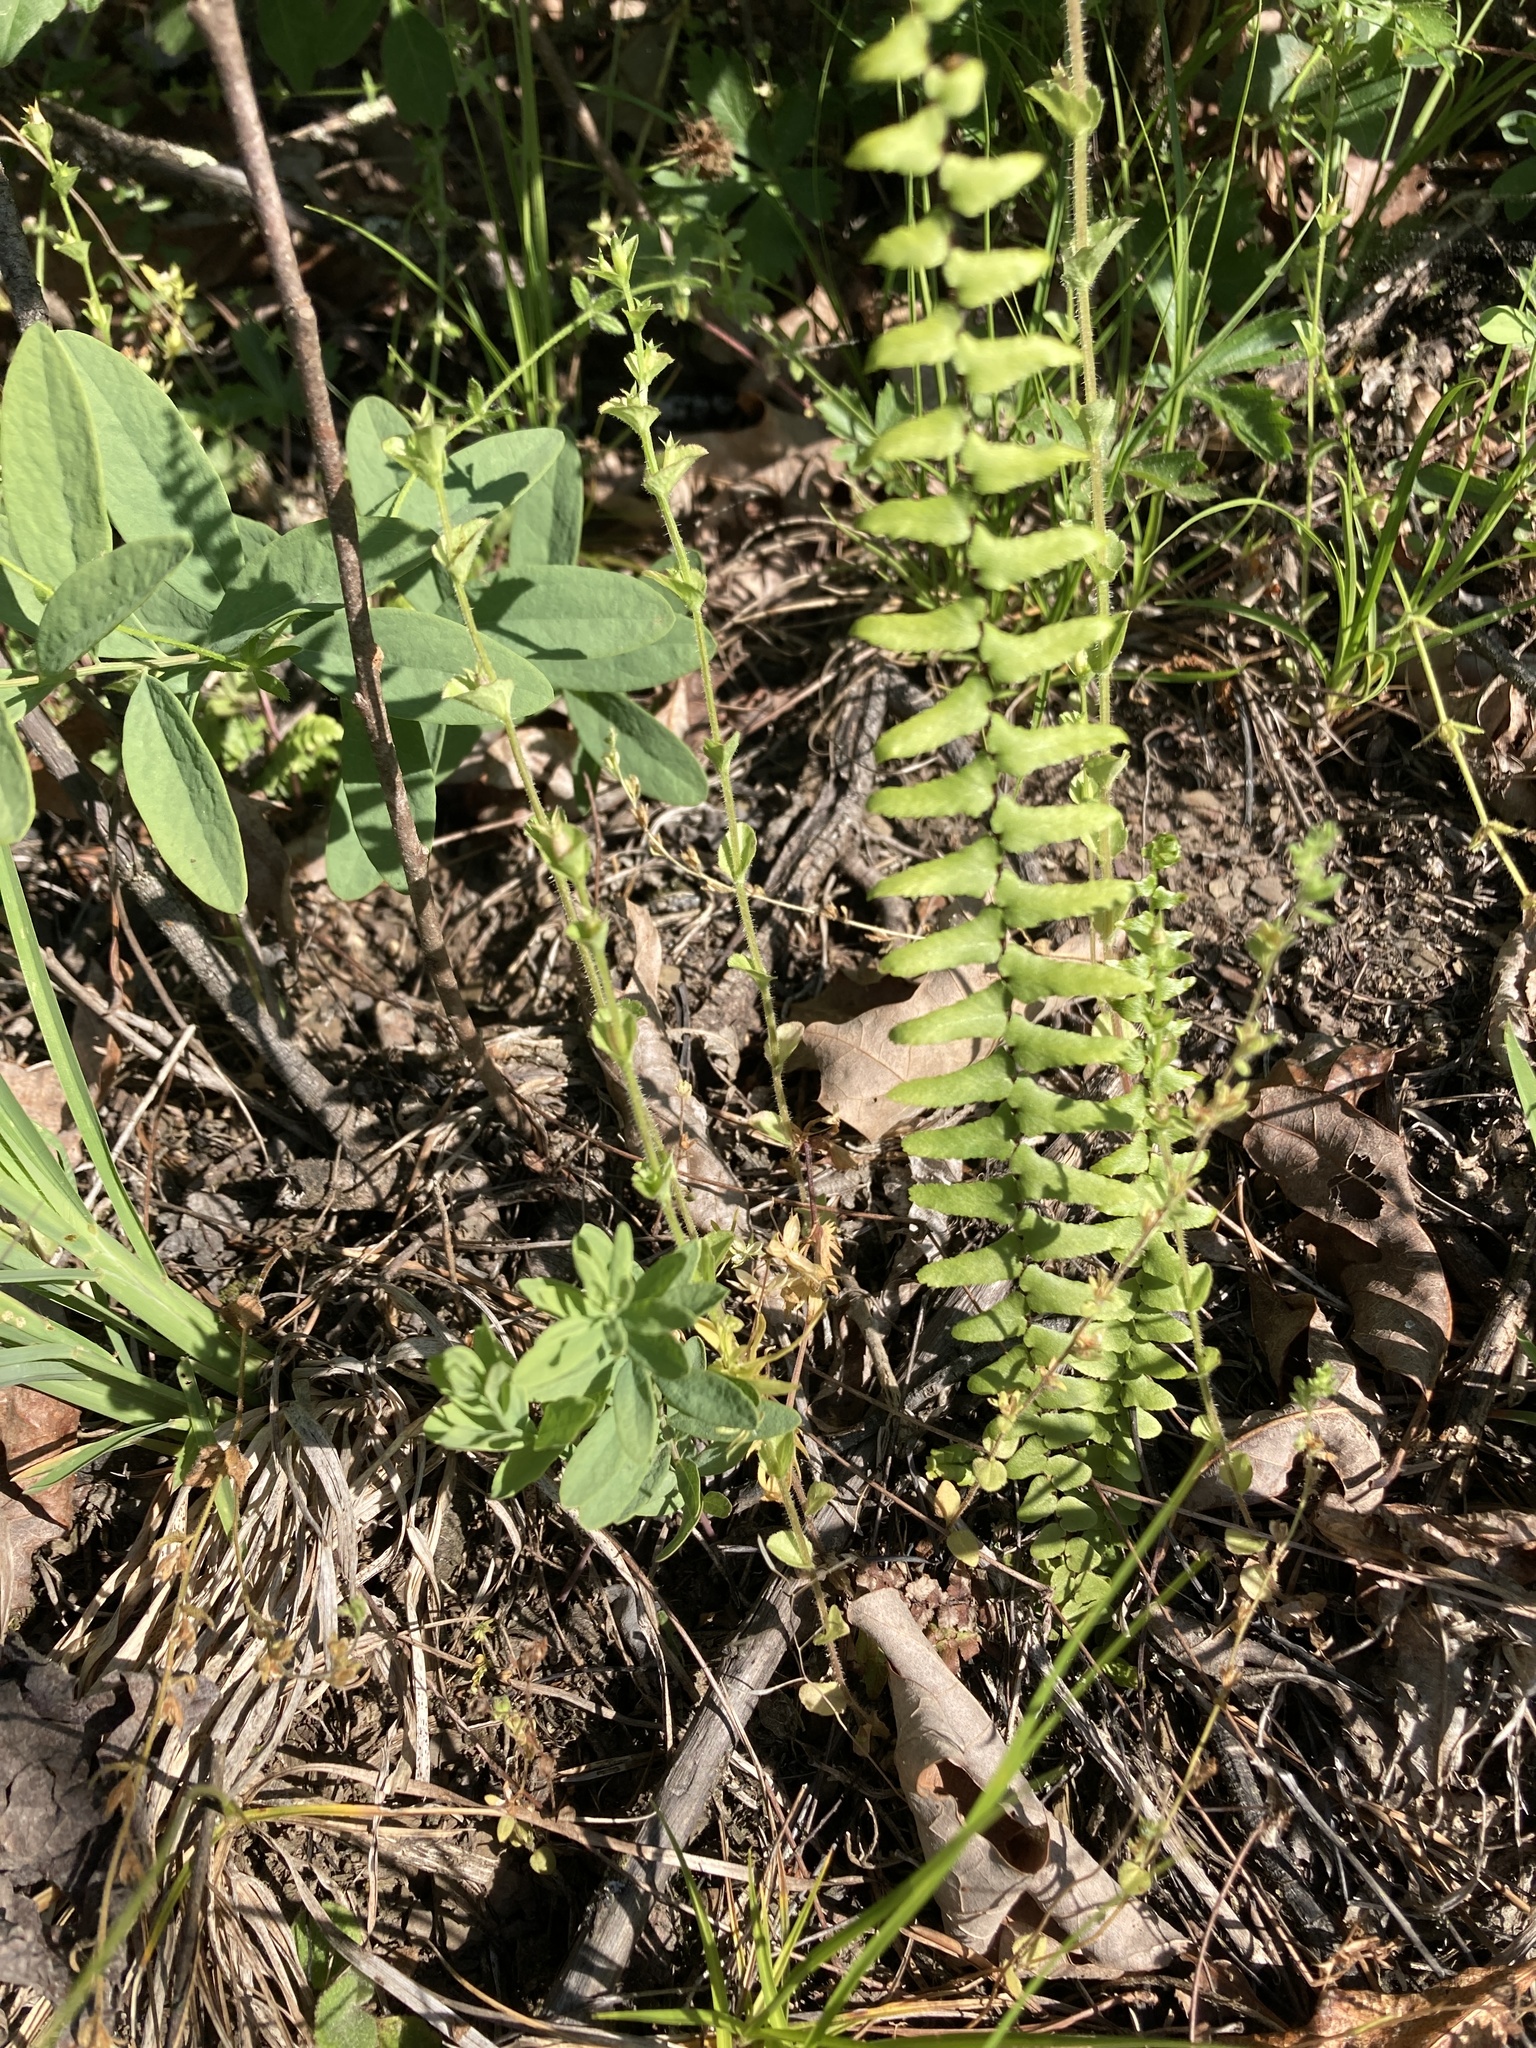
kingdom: Plantae
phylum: Tracheophyta
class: Polypodiopsida
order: Polypodiales
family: Aspleniaceae
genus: Asplenium
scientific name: Asplenium platyneuron
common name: Ebony spleenwort
